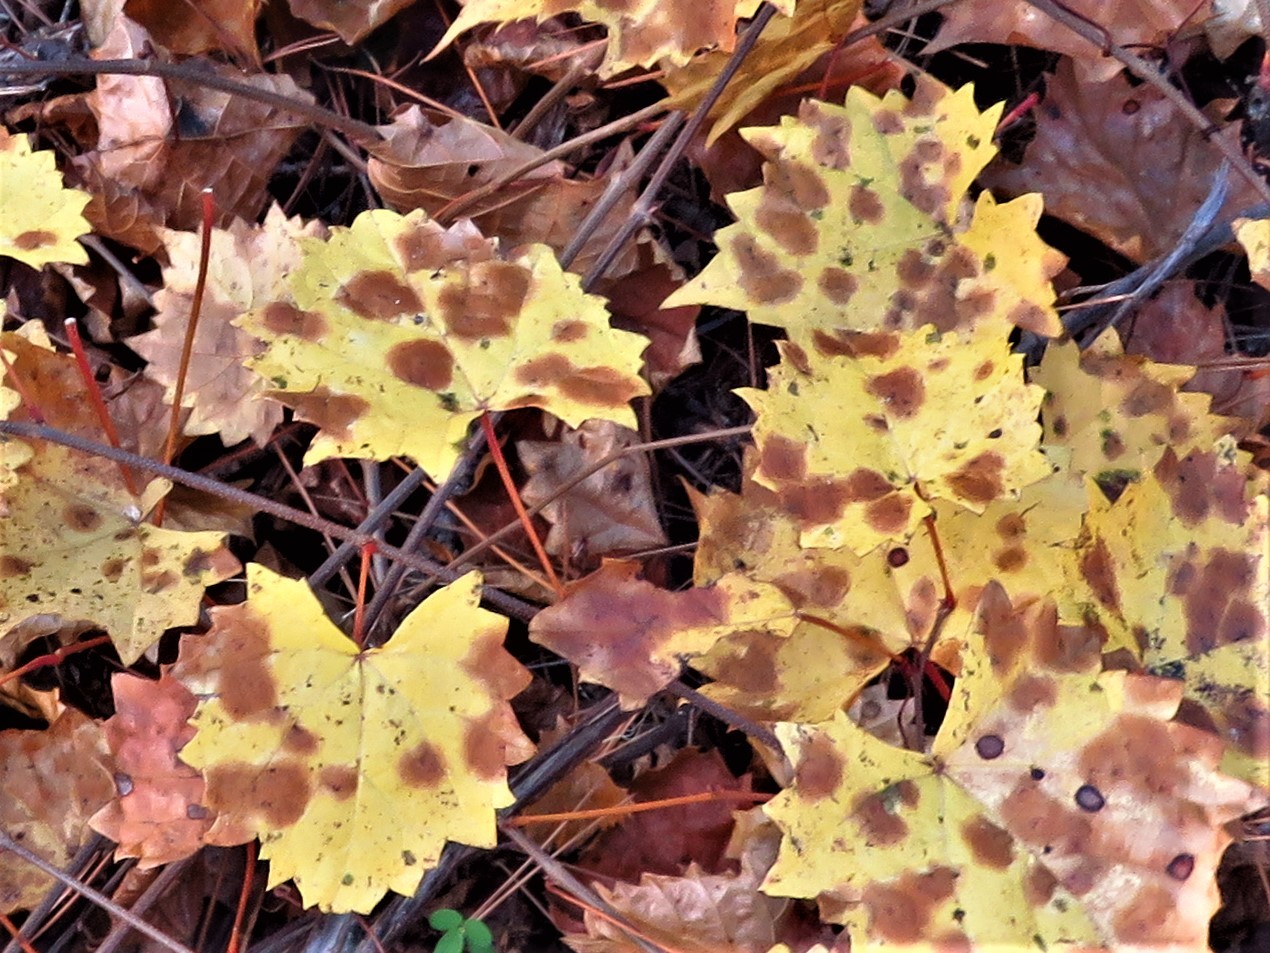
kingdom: Plantae
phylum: Tracheophyta
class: Magnoliopsida
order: Vitales
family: Vitaceae
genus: Vitis
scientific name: Vitis rotundifolia
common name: Muscadine grape
